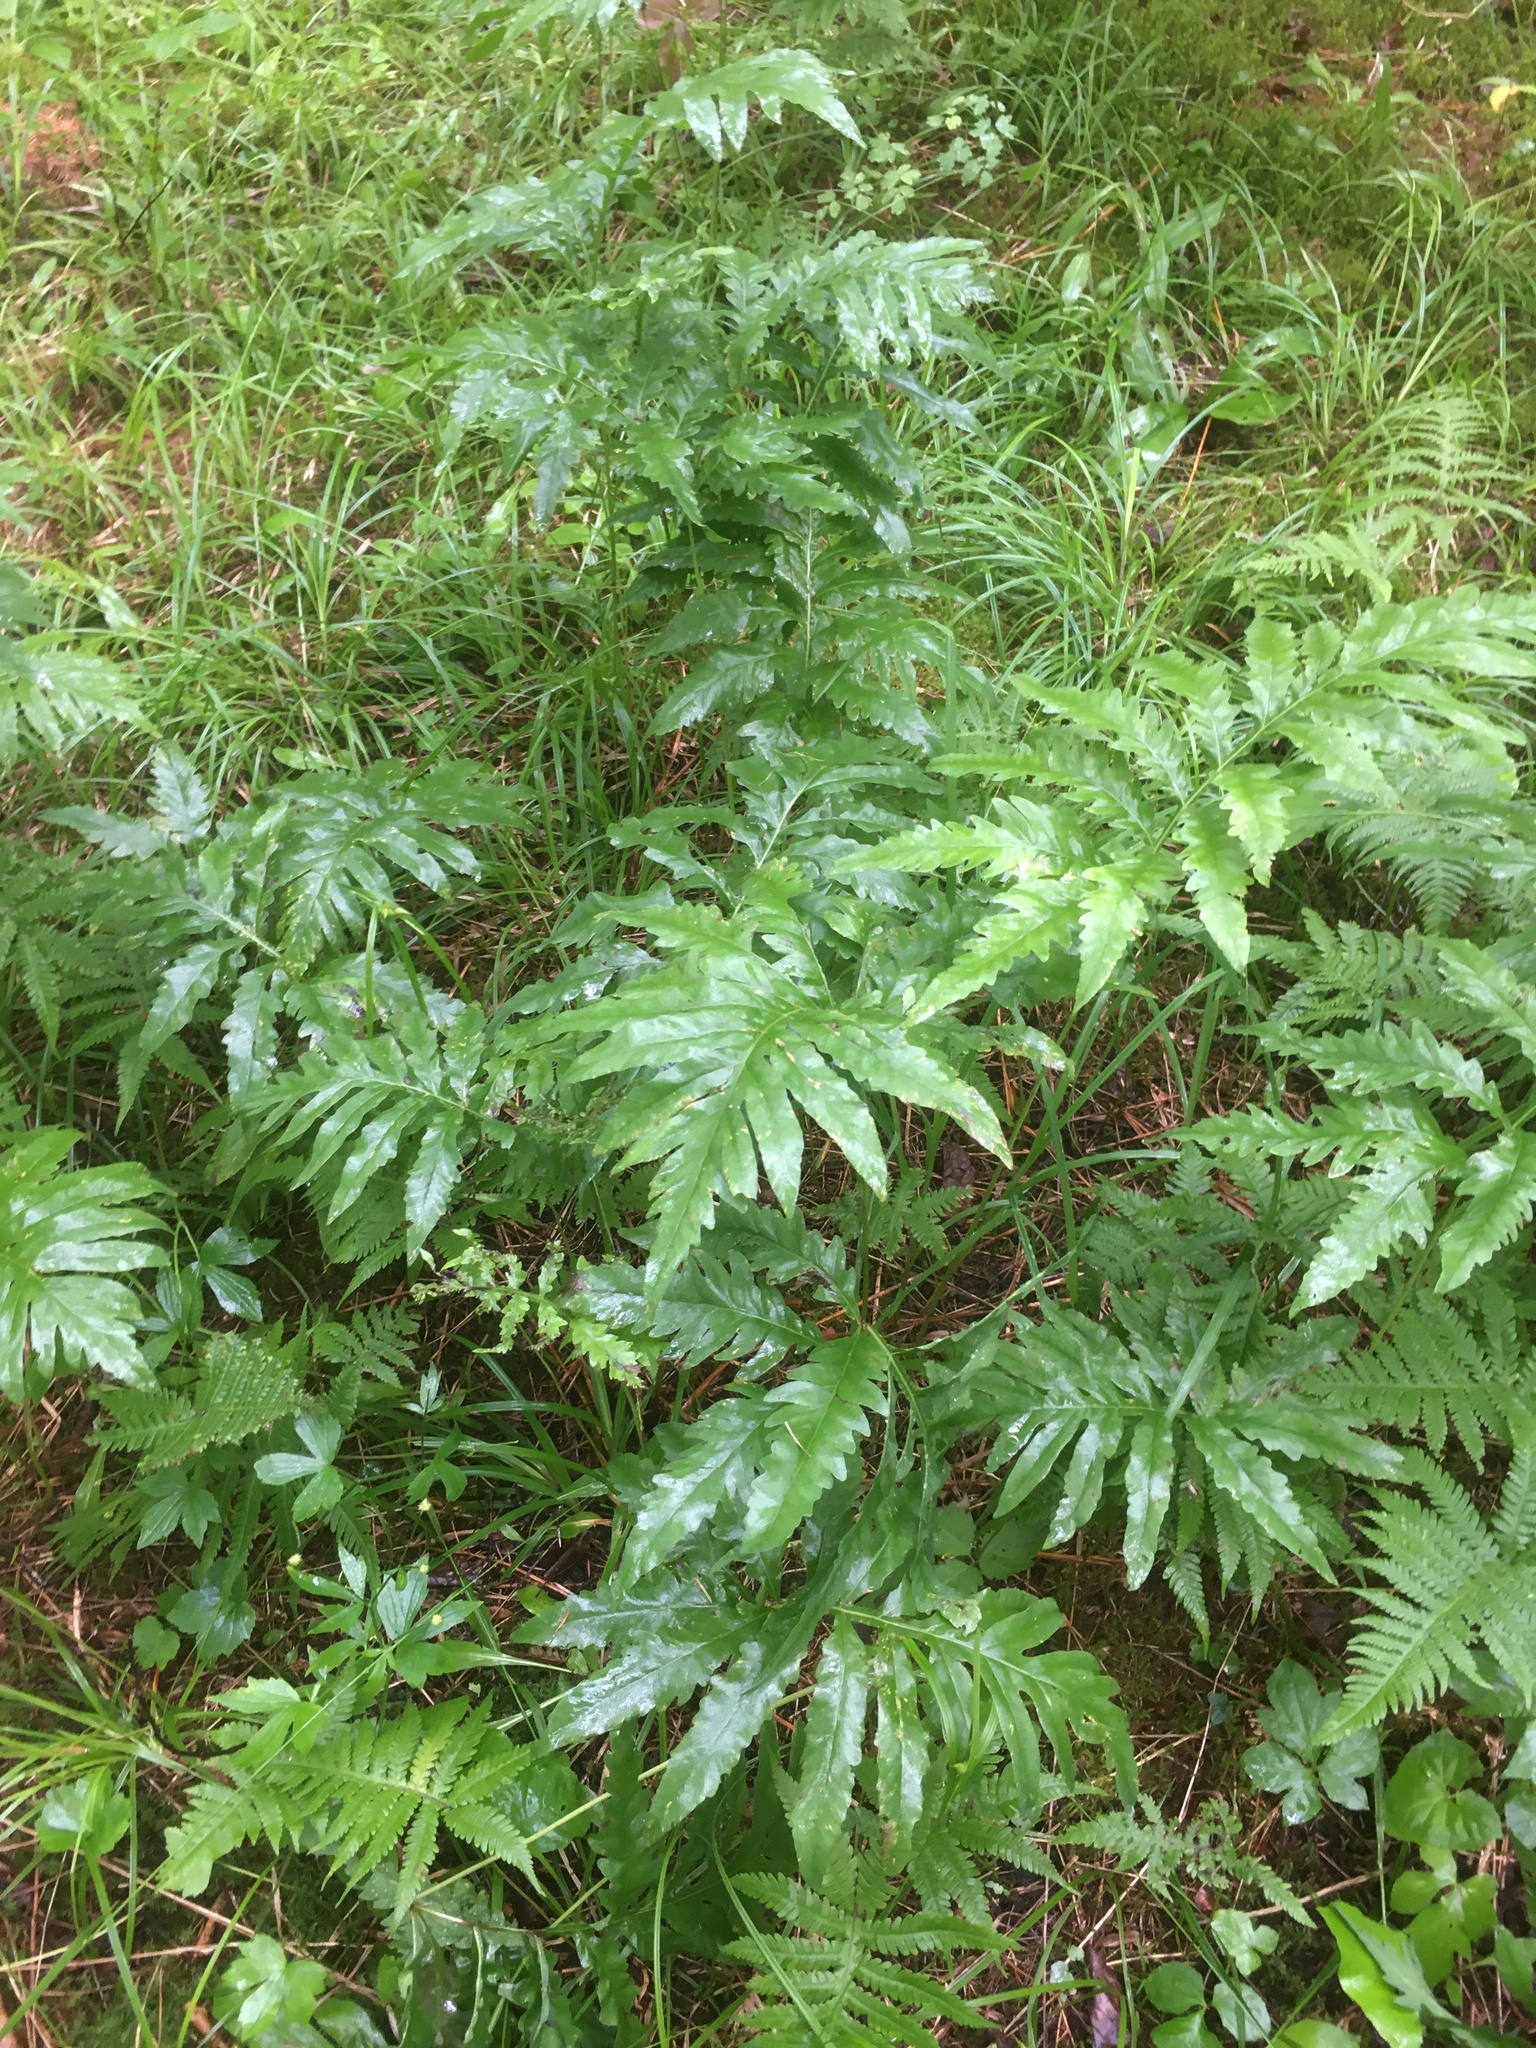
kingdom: Plantae
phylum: Tracheophyta
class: Polypodiopsida
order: Polypodiales
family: Onocleaceae
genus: Onoclea
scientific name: Onoclea sensibilis
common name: Sensitive fern
